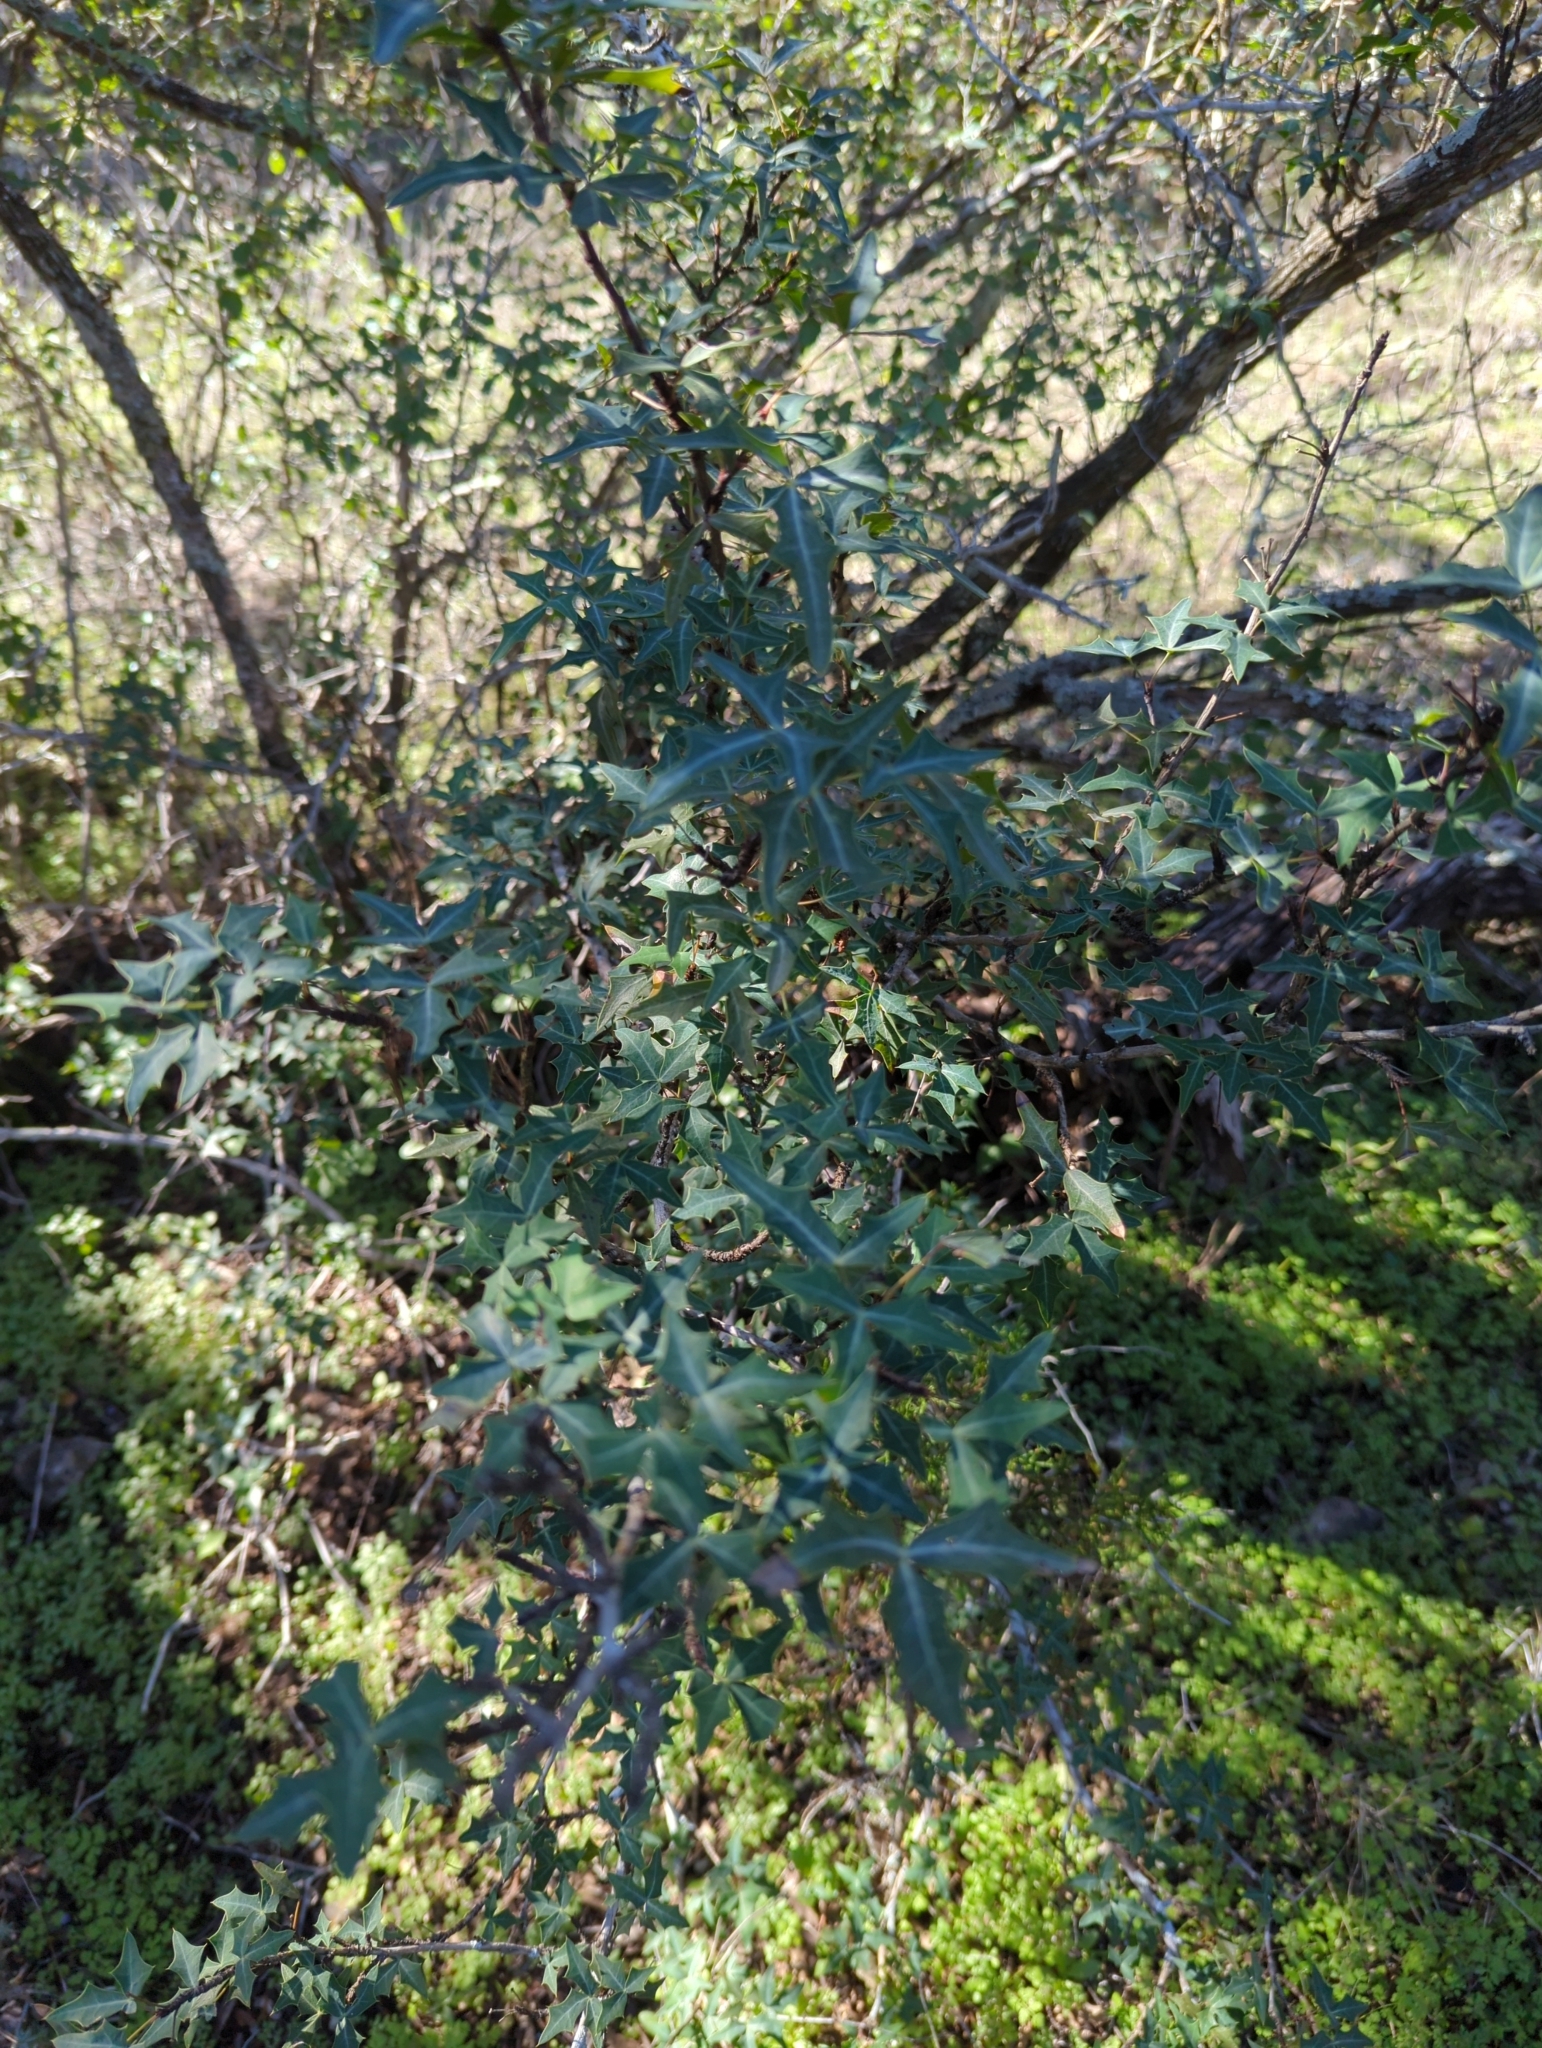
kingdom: Plantae
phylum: Tracheophyta
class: Magnoliopsida
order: Ranunculales
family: Berberidaceae
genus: Alloberberis
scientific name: Alloberberis trifoliolata
